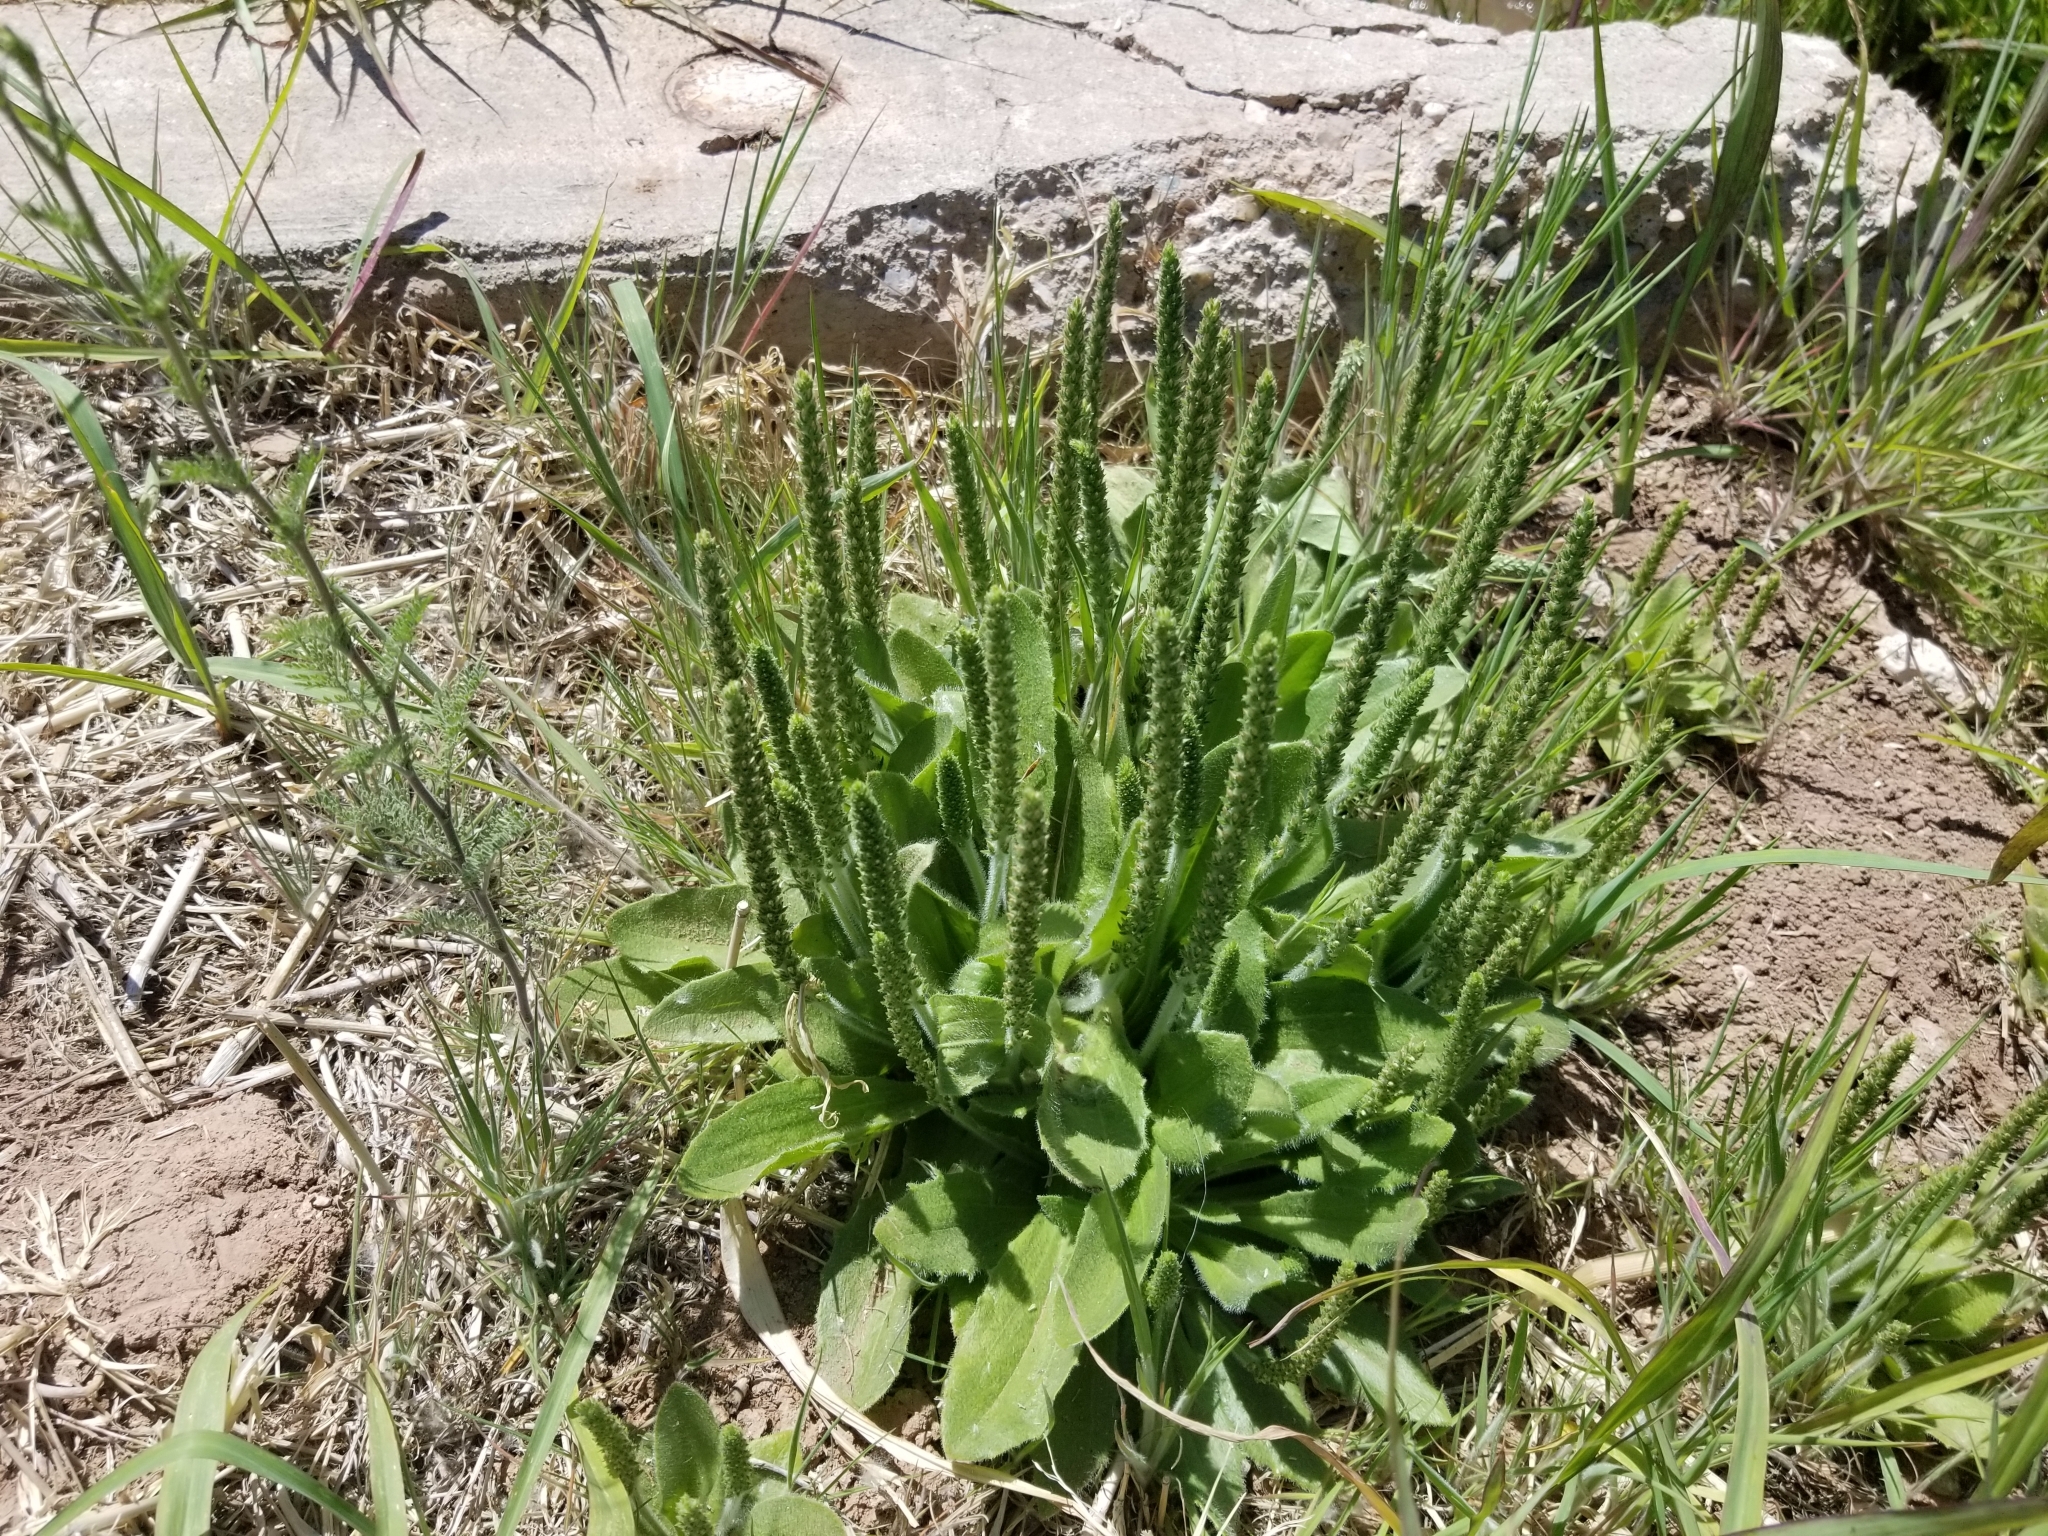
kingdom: Plantae
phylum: Tracheophyta
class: Magnoliopsida
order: Lamiales
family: Plantaginaceae
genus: Plantago
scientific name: Plantago rhodosperma
